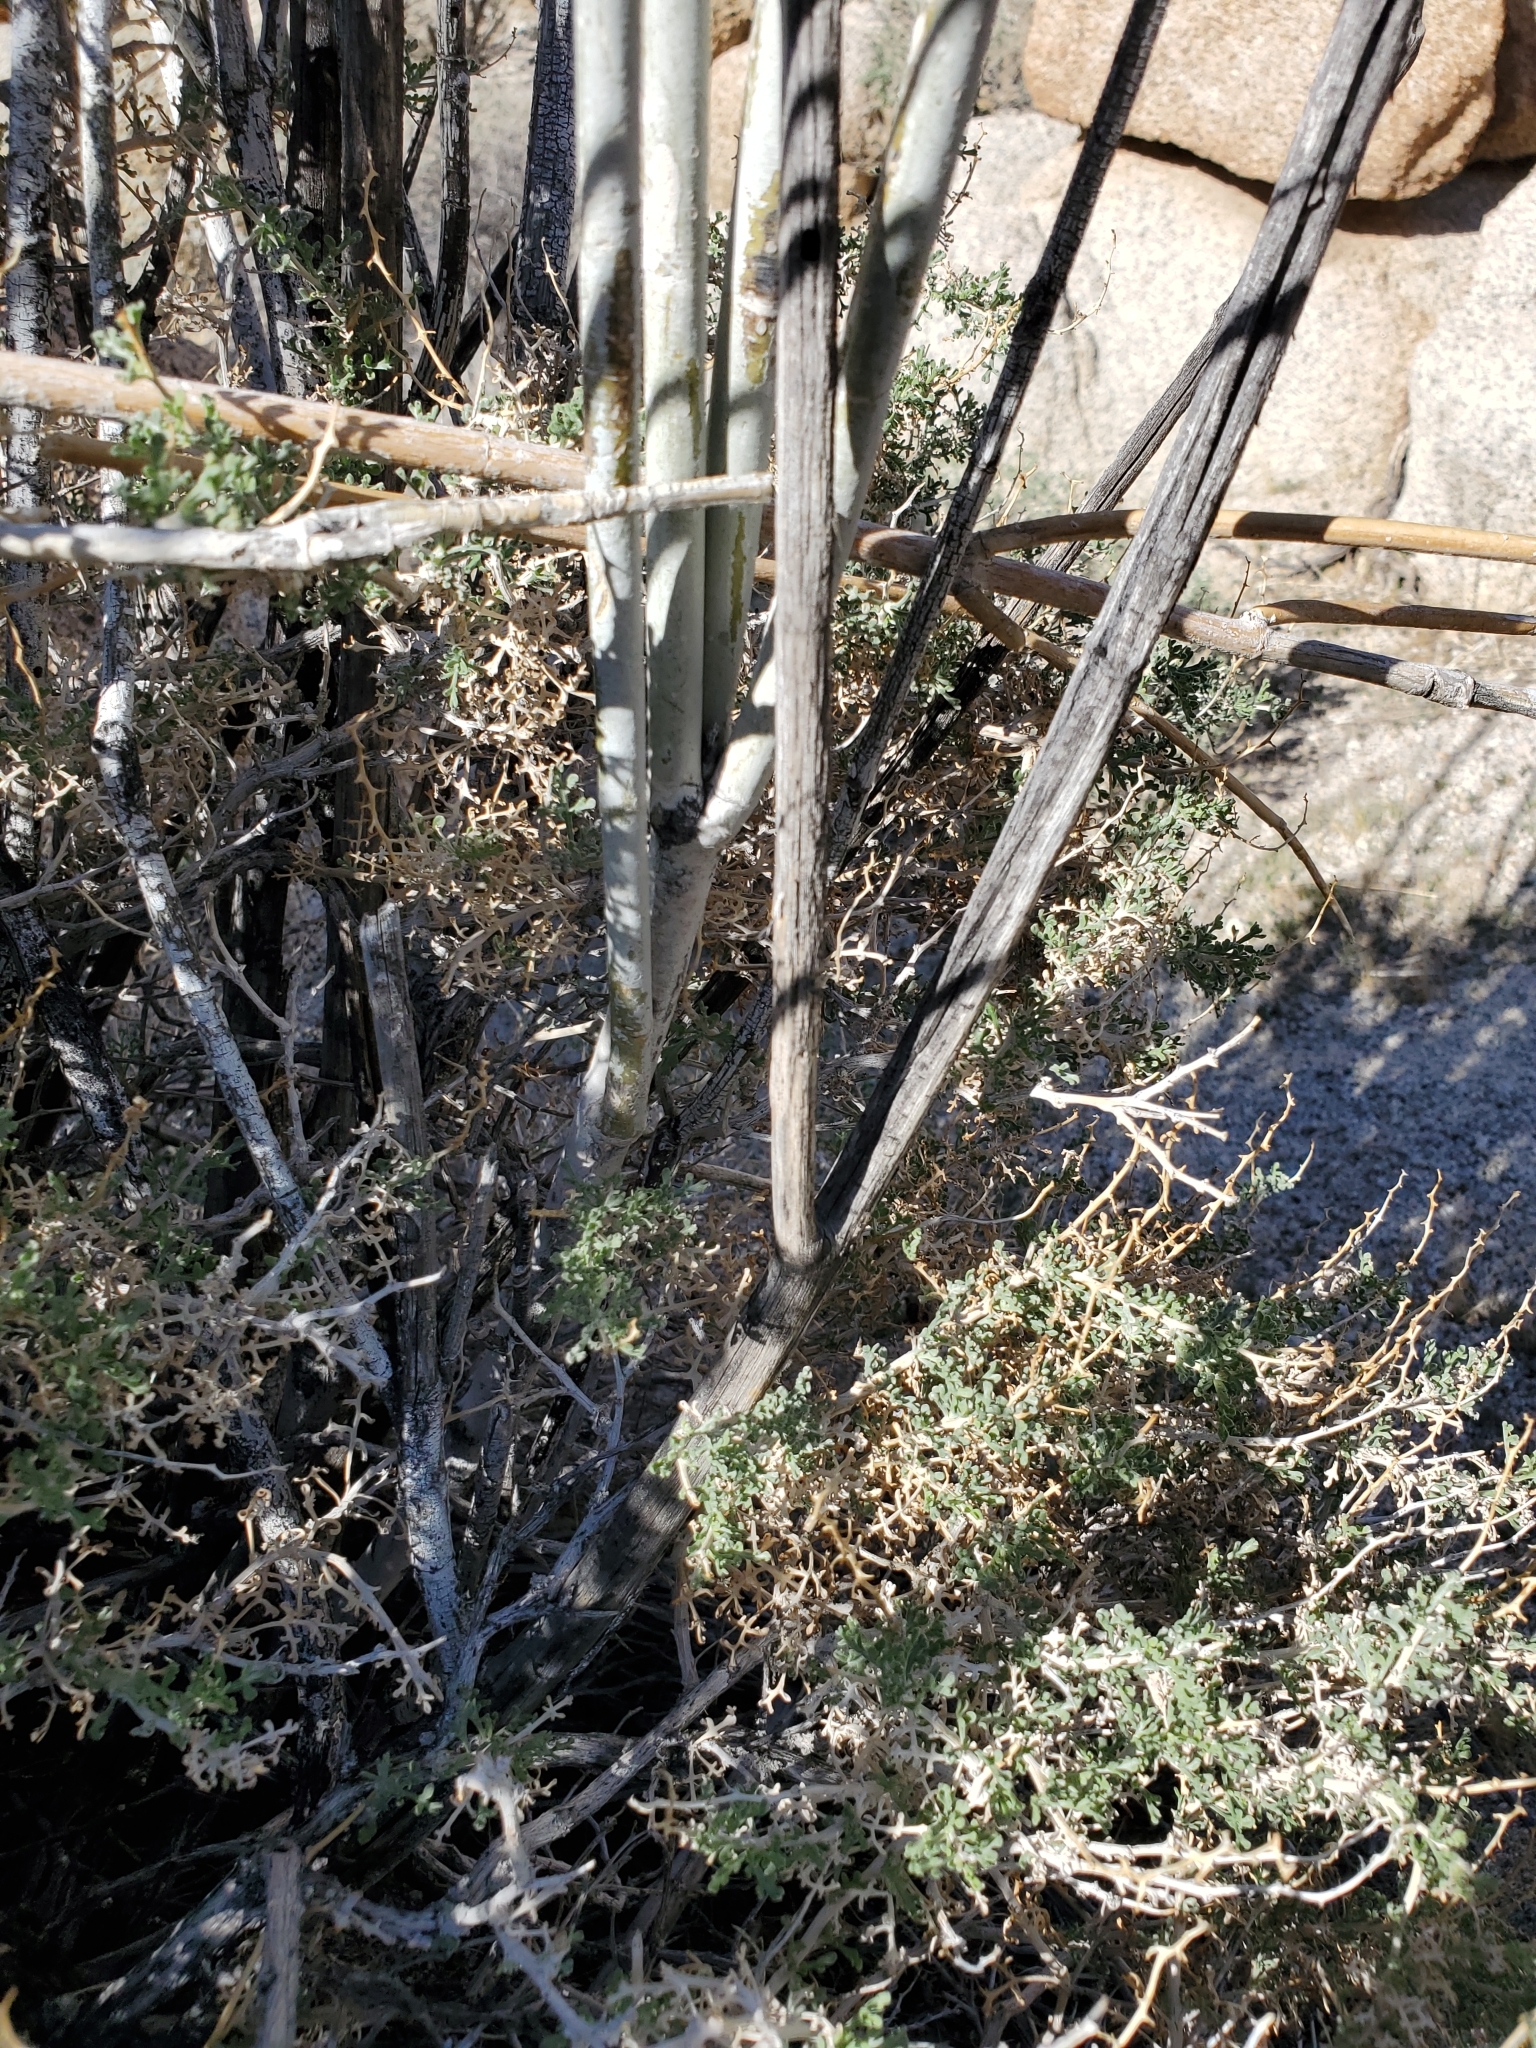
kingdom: Plantae
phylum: Tracheophyta
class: Magnoliopsida
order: Gentianales
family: Apocynaceae
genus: Asclepias
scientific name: Asclepias albicans
